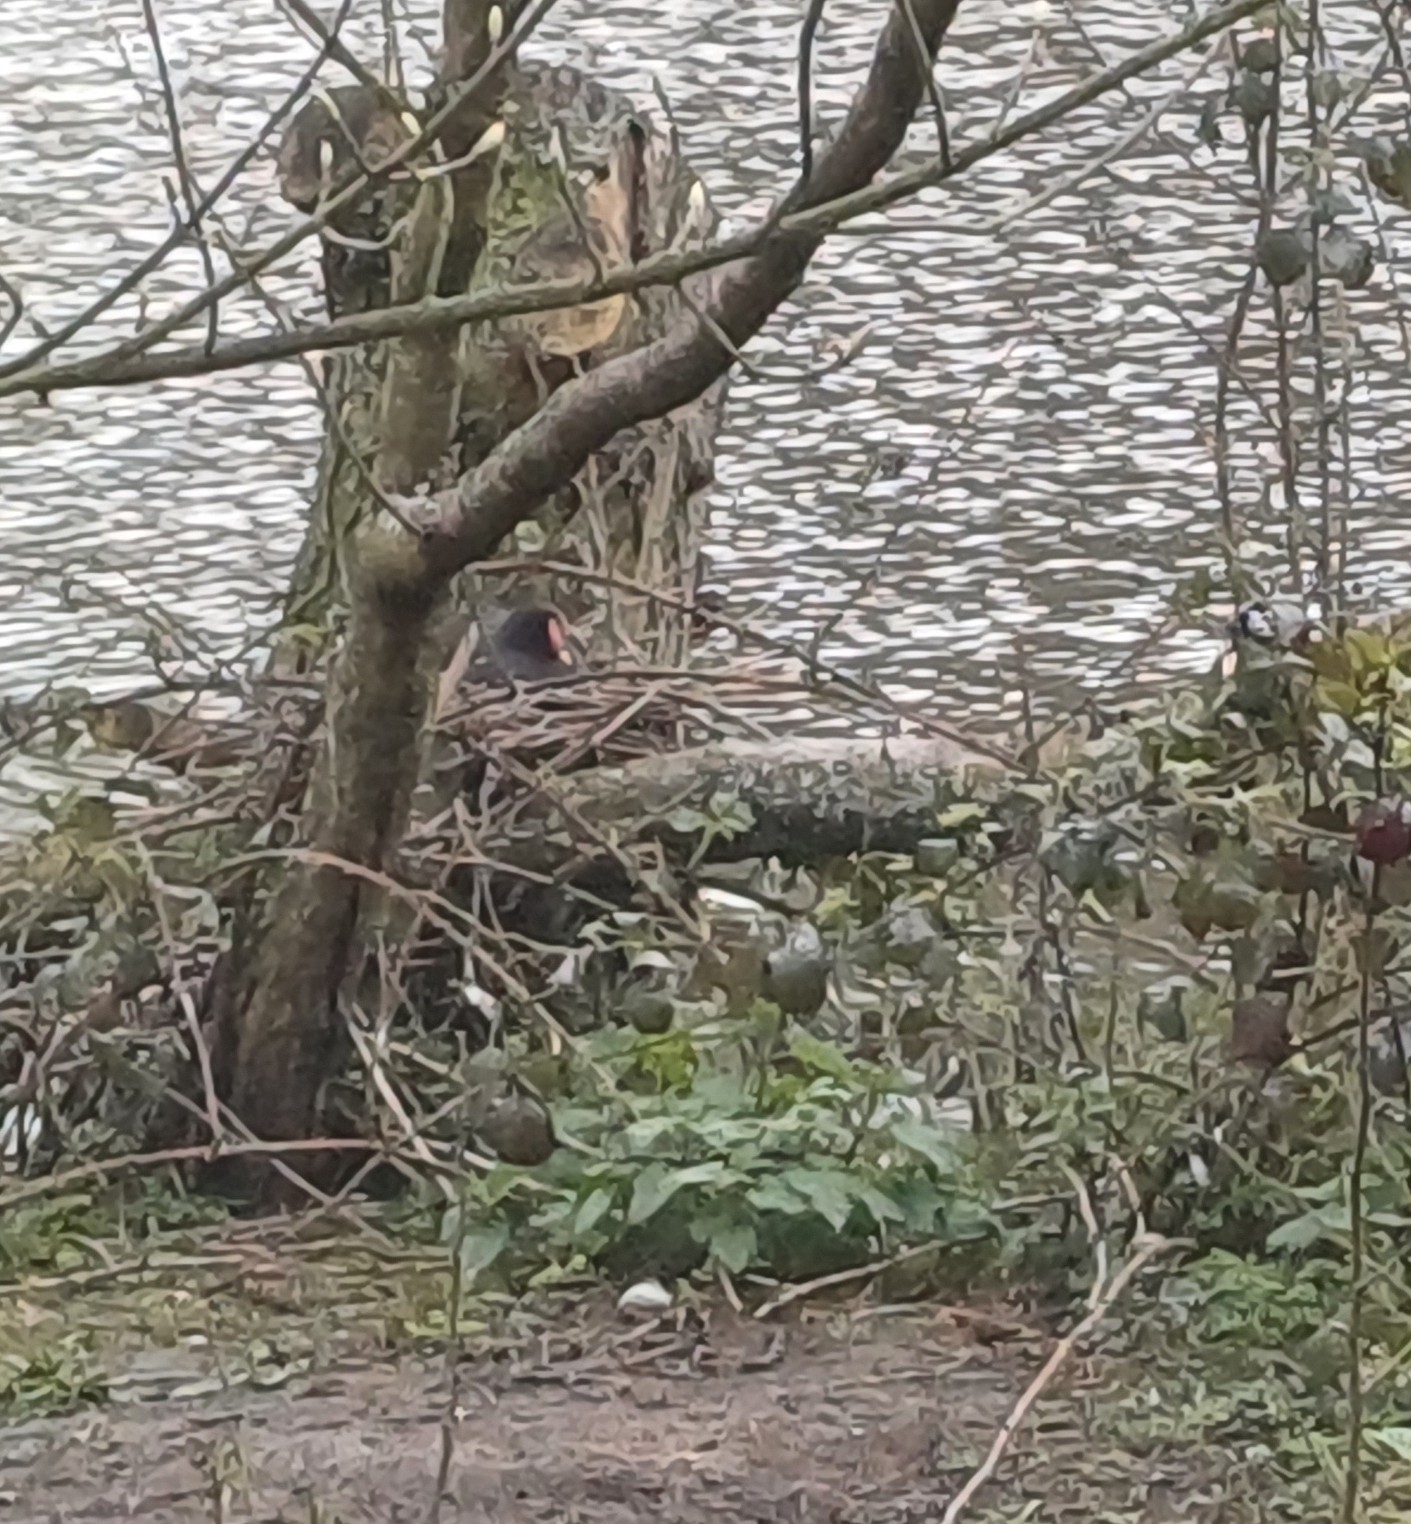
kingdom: Animalia
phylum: Chordata
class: Aves
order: Gruiformes
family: Rallidae
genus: Gallinula
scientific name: Gallinula chloropus
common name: Common moorhen
